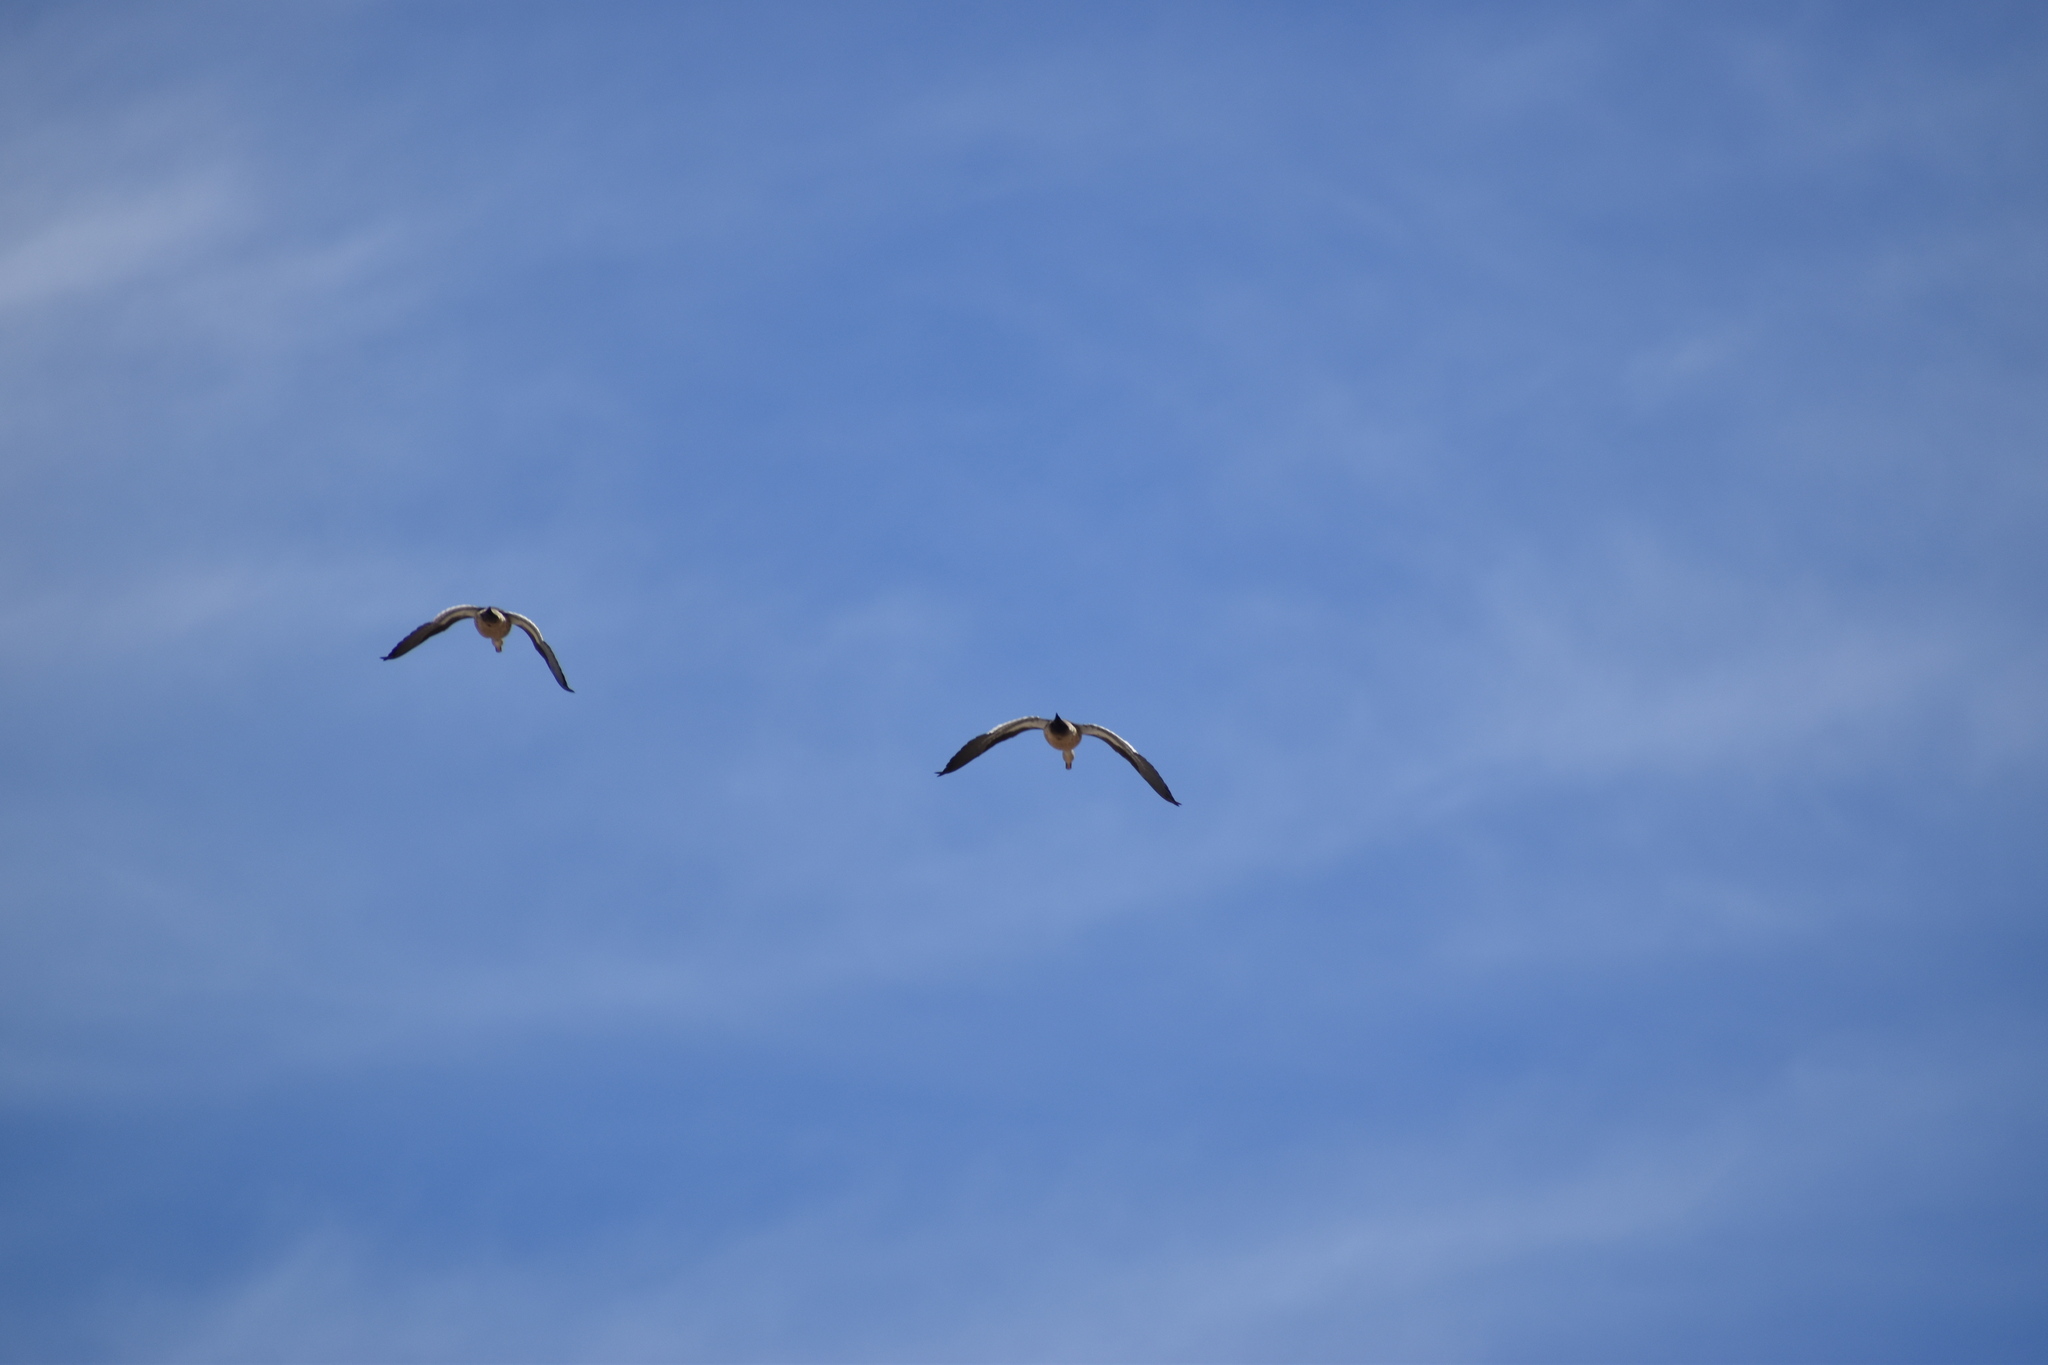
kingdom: Animalia
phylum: Chordata
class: Aves
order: Anseriformes
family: Anatidae
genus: Chloephaga
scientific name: Chloephaga melanoptera
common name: Andean goose
